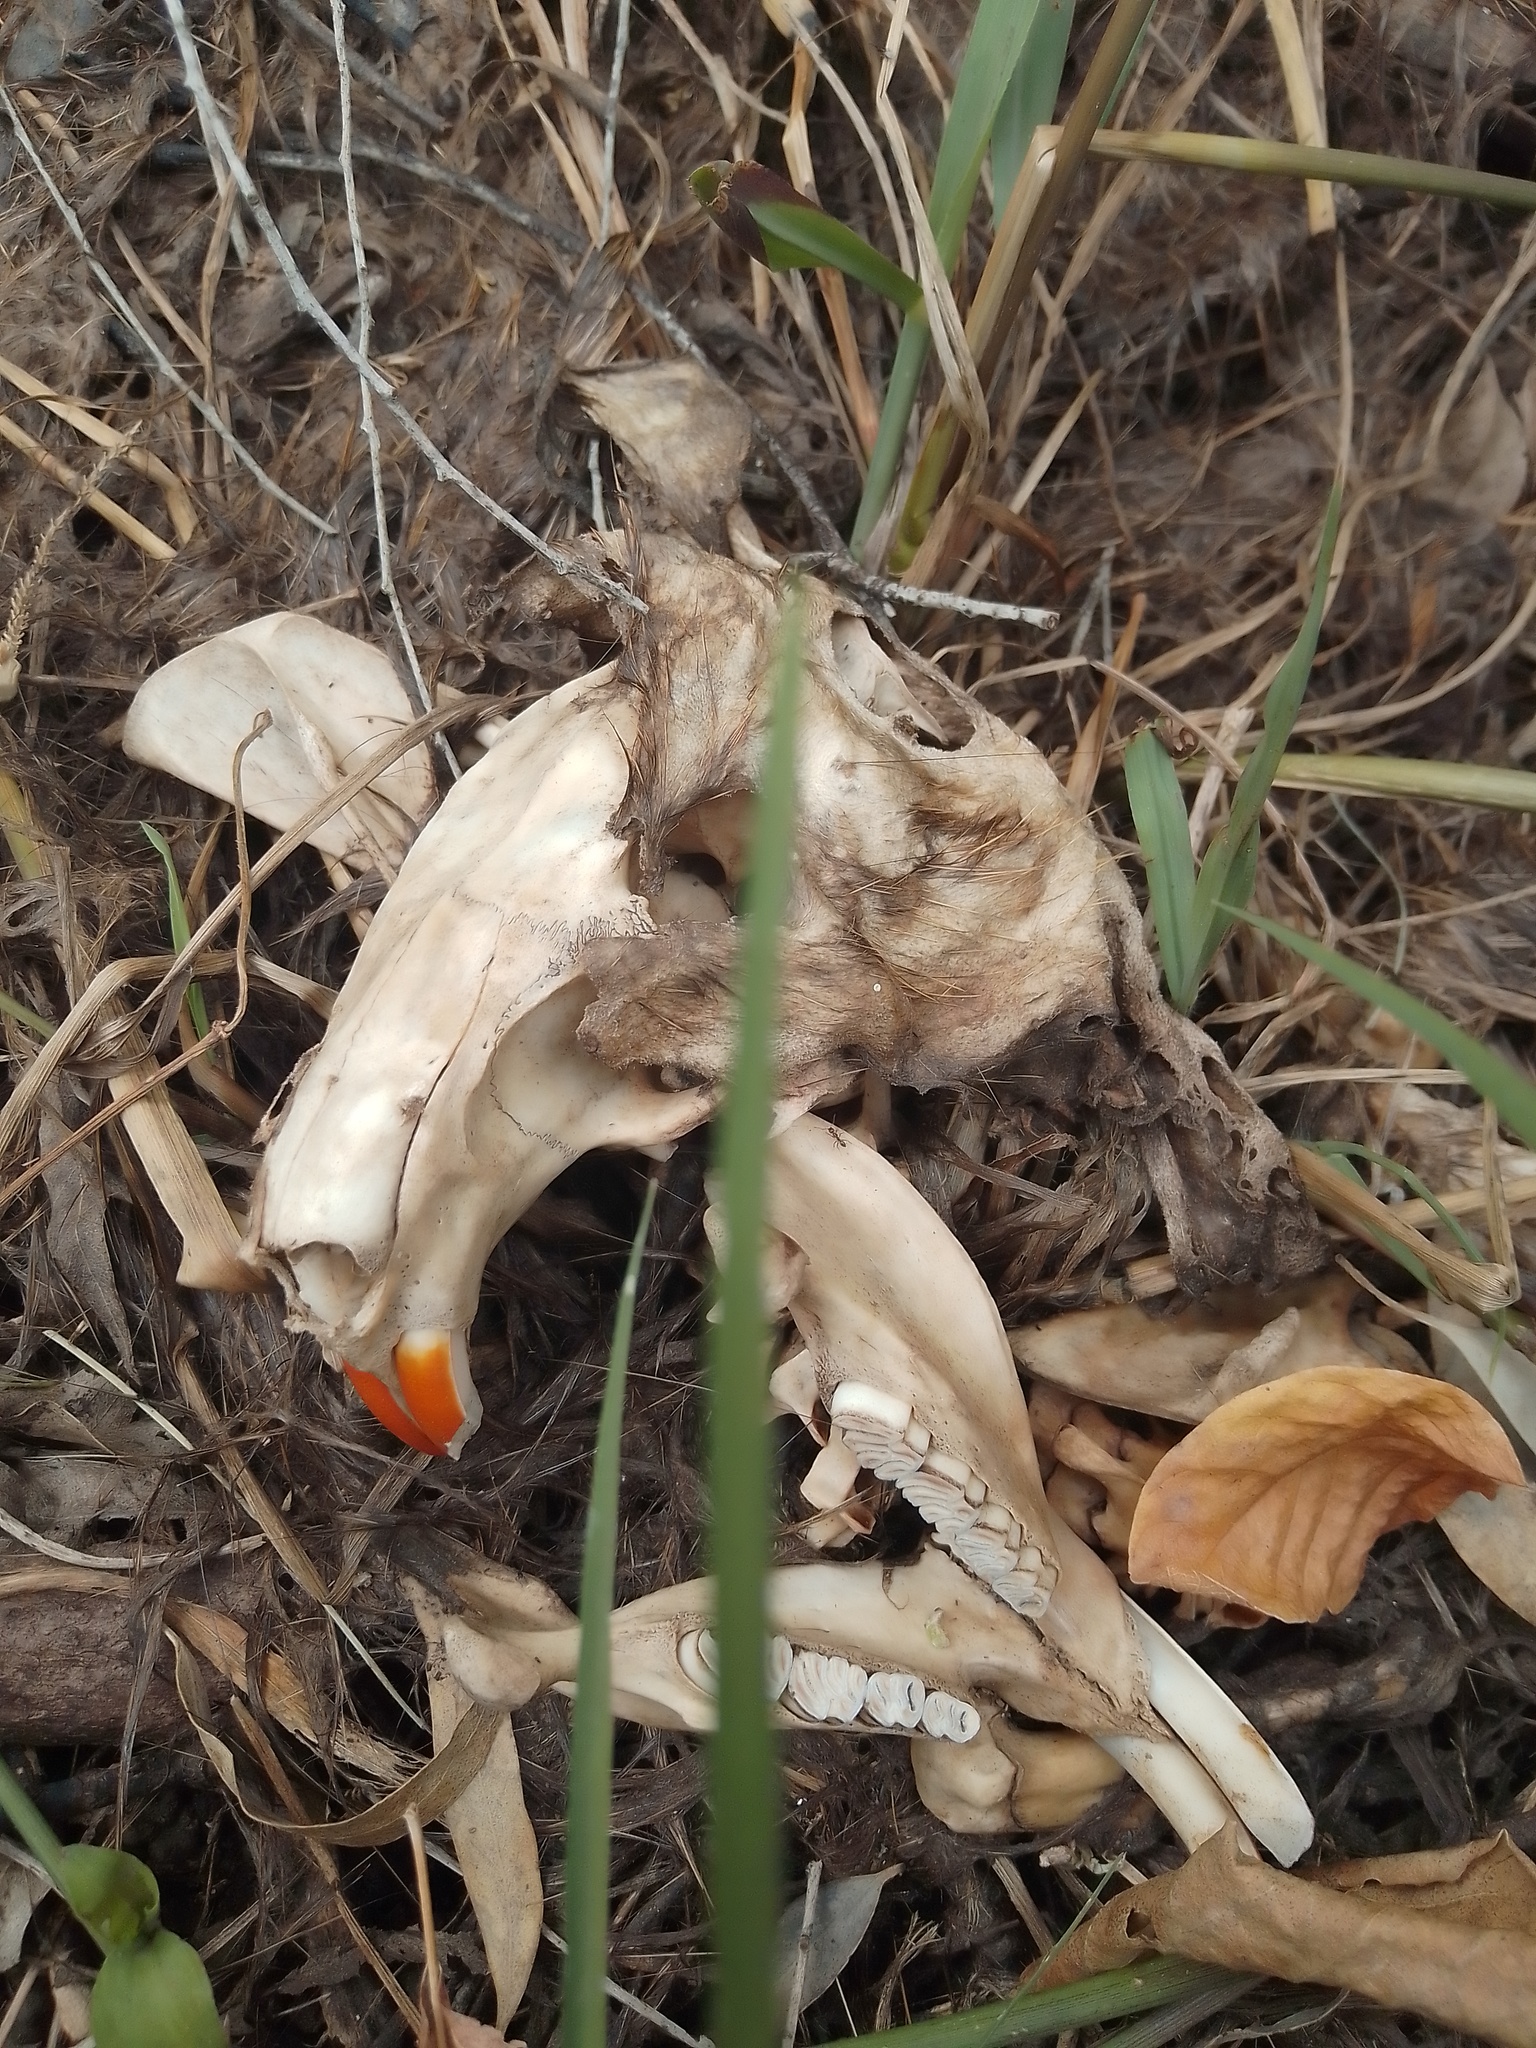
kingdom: Animalia
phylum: Chordata
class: Mammalia
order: Rodentia
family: Myocastoridae
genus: Myocastor
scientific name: Myocastor coypus
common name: Coypu
